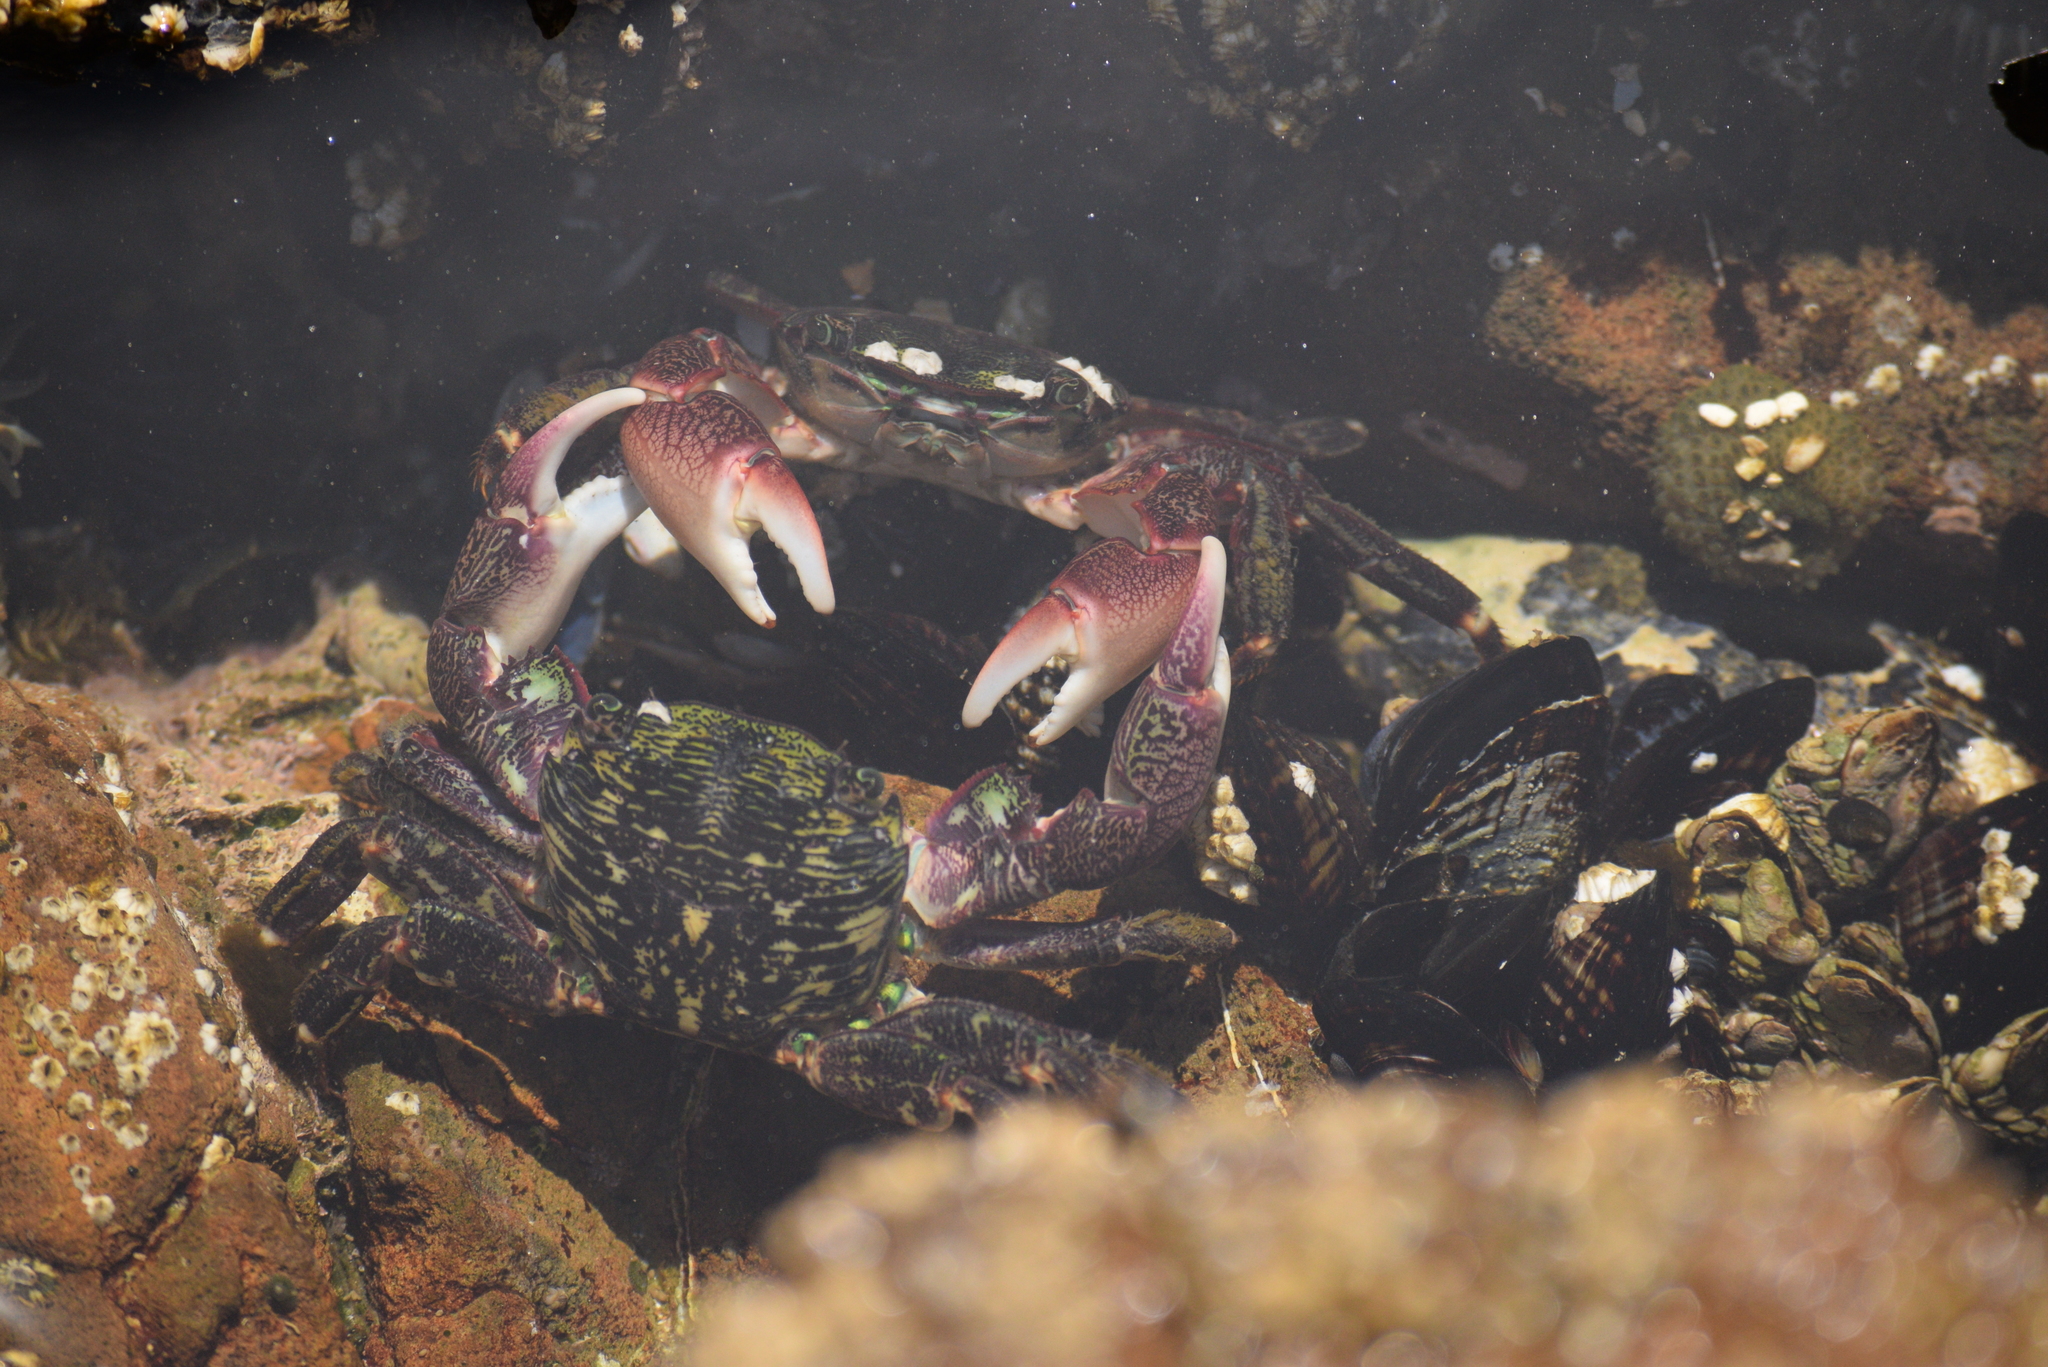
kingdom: Animalia
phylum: Arthropoda
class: Malacostraca
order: Decapoda
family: Grapsidae
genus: Pachygrapsus
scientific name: Pachygrapsus crassipes
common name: Striped shore crab
